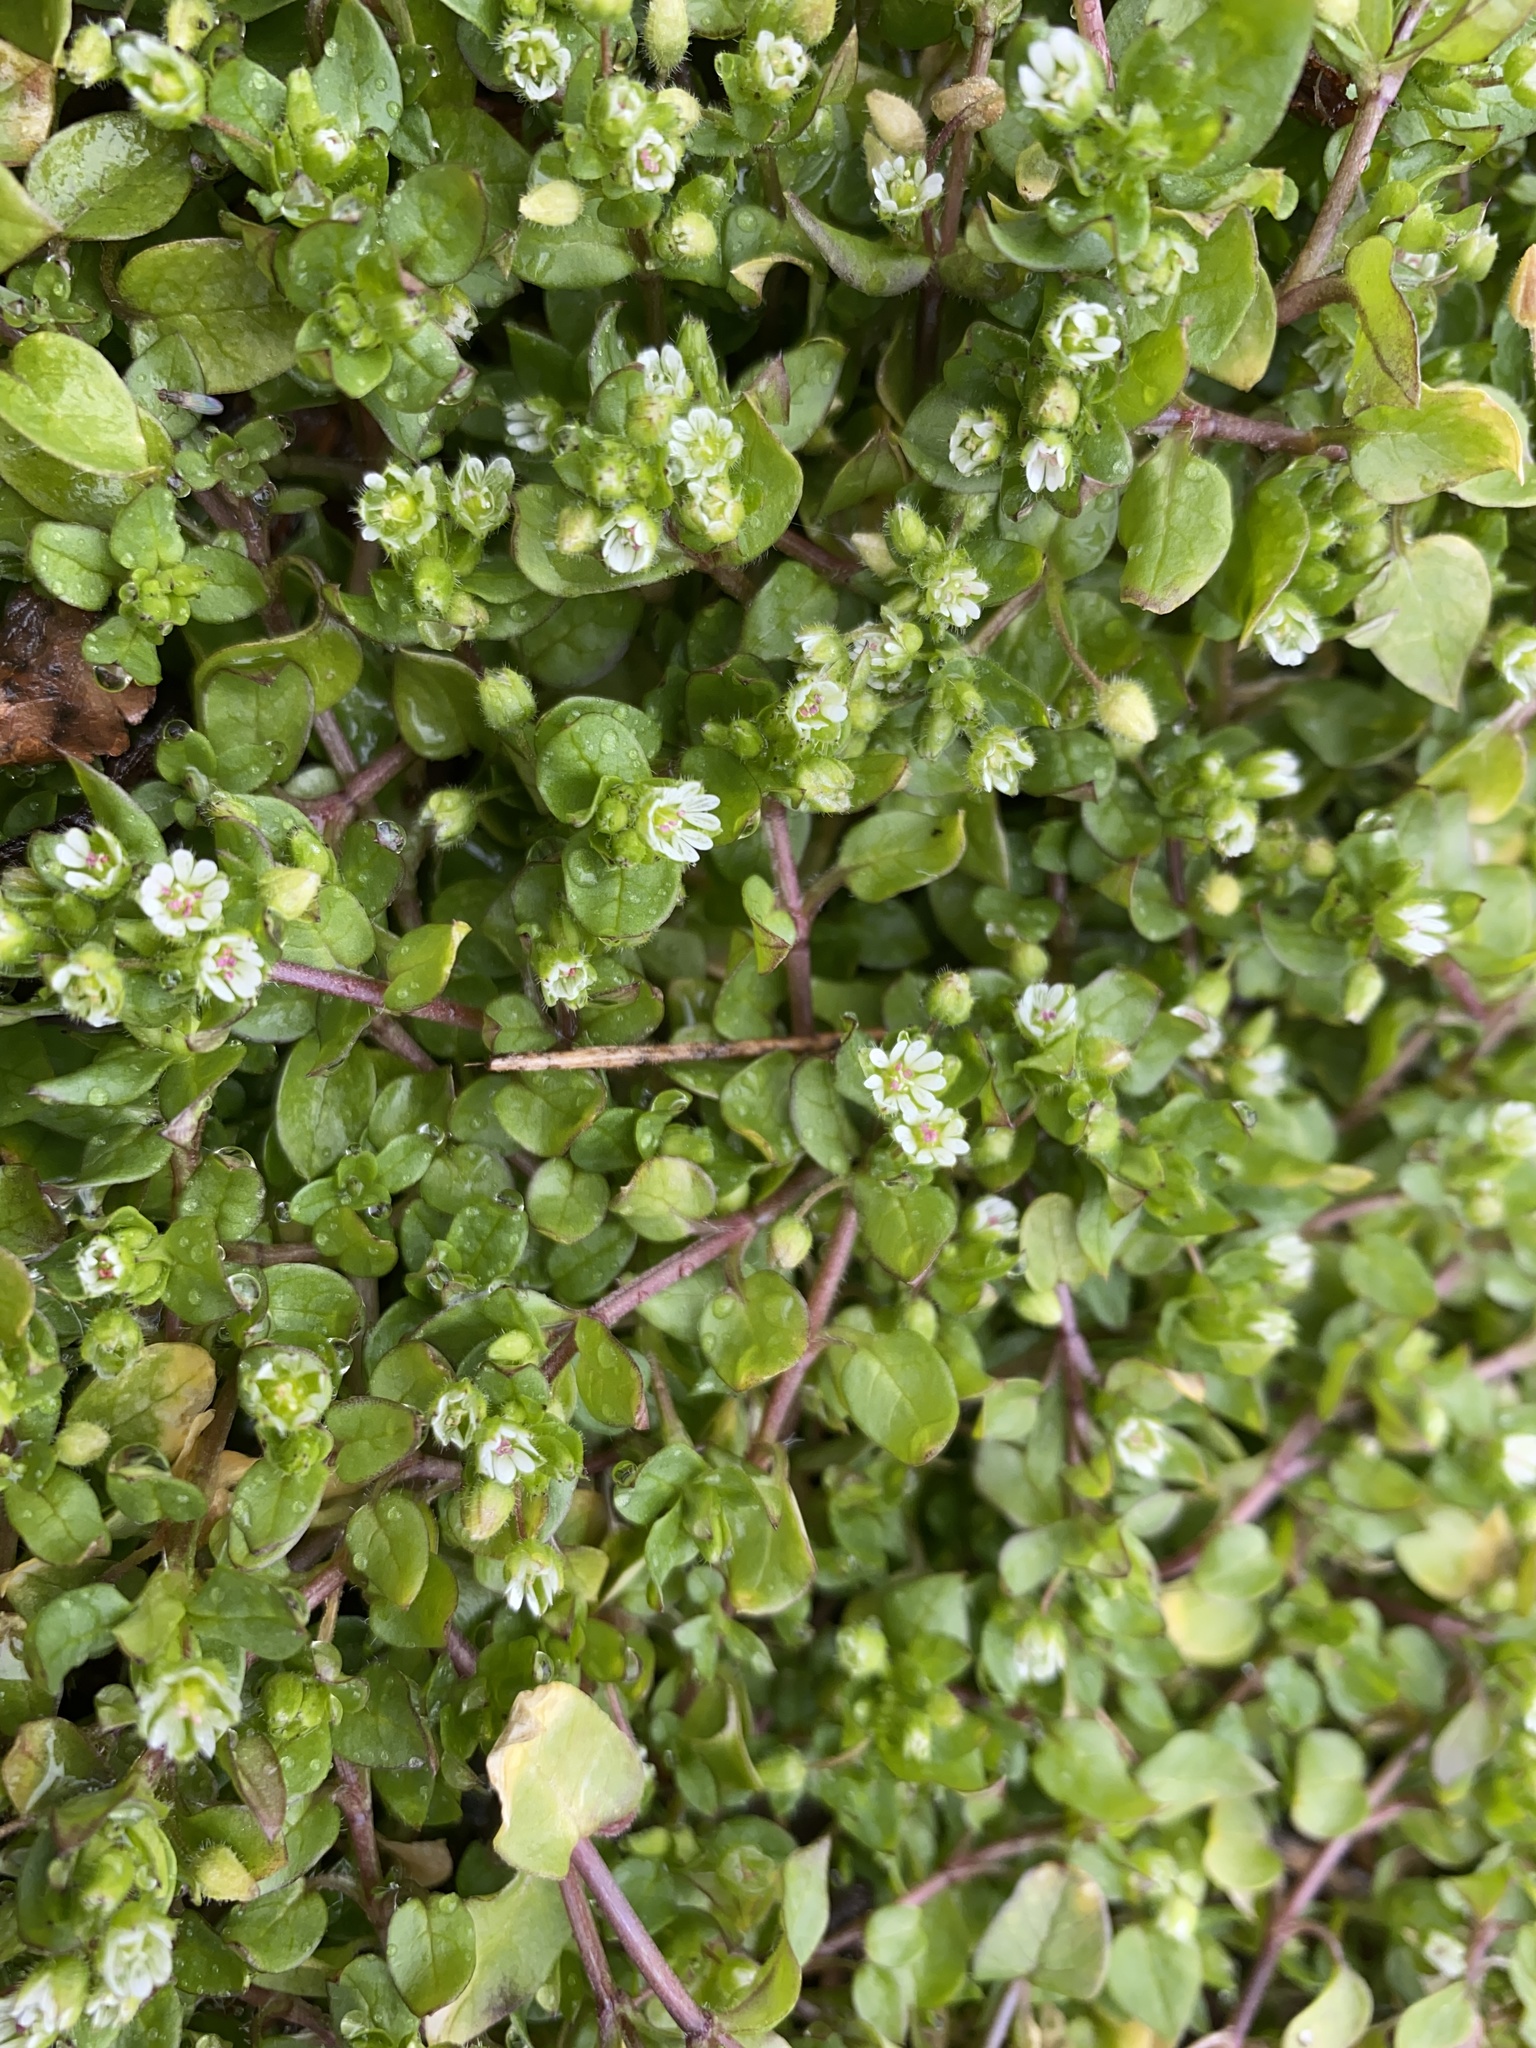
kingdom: Plantae
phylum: Tracheophyta
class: Magnoliopsida
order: Caryophyllales
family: Caryophyllaceae
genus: Stellaria
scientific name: Stellaria media
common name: Common chickweed
